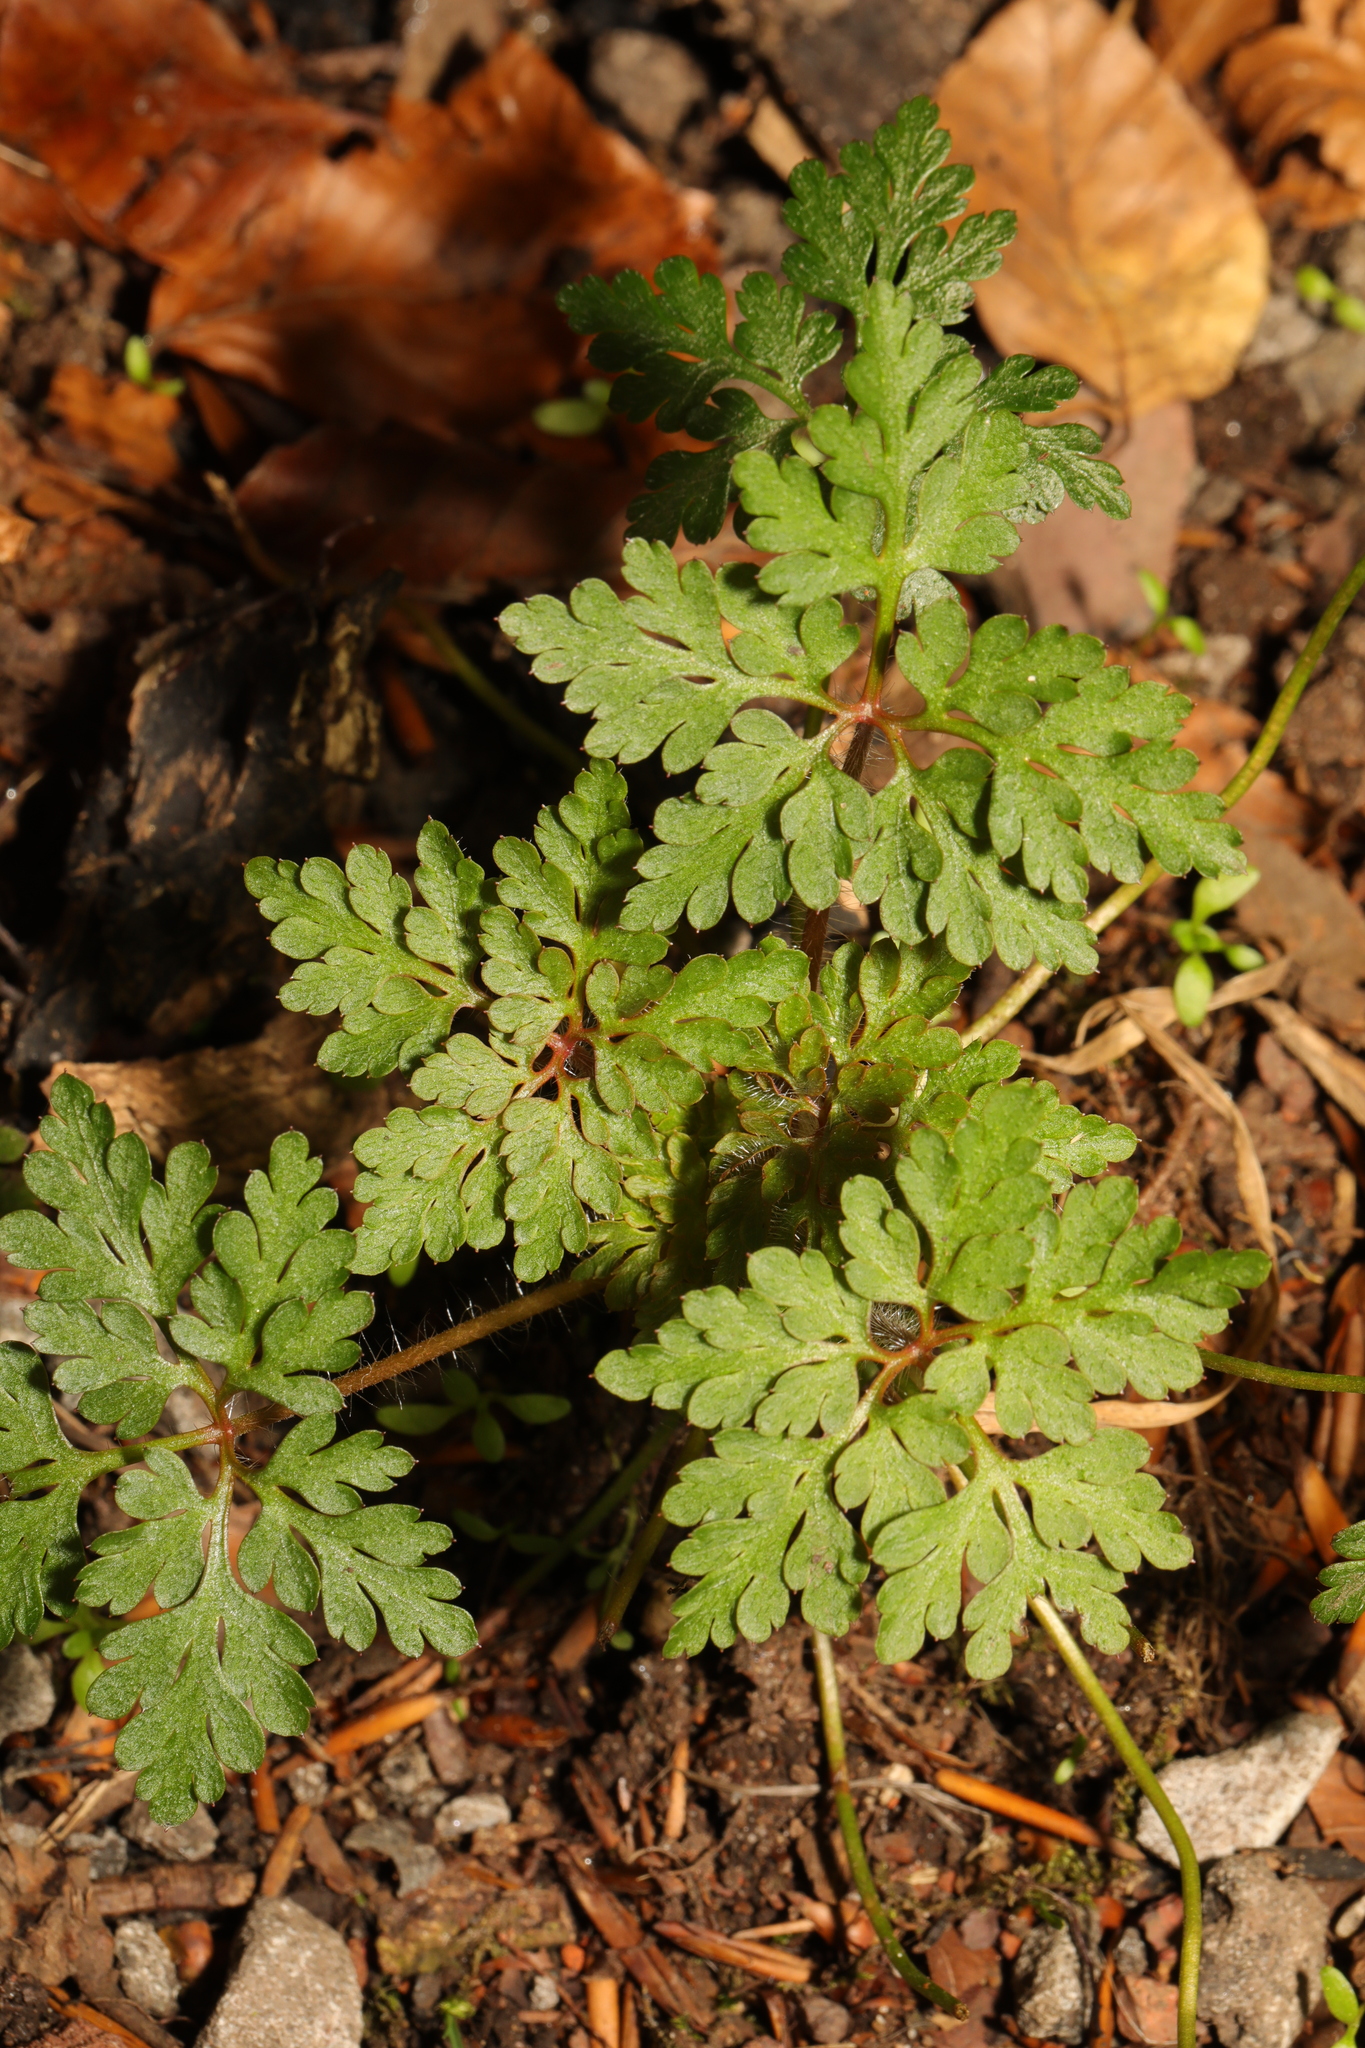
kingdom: Plantae
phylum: Tracheophyta
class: Magnoliopsida
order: Geraniales
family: Geraniaceae
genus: Geranium
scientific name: Geranium robertianum
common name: Herb-robert
